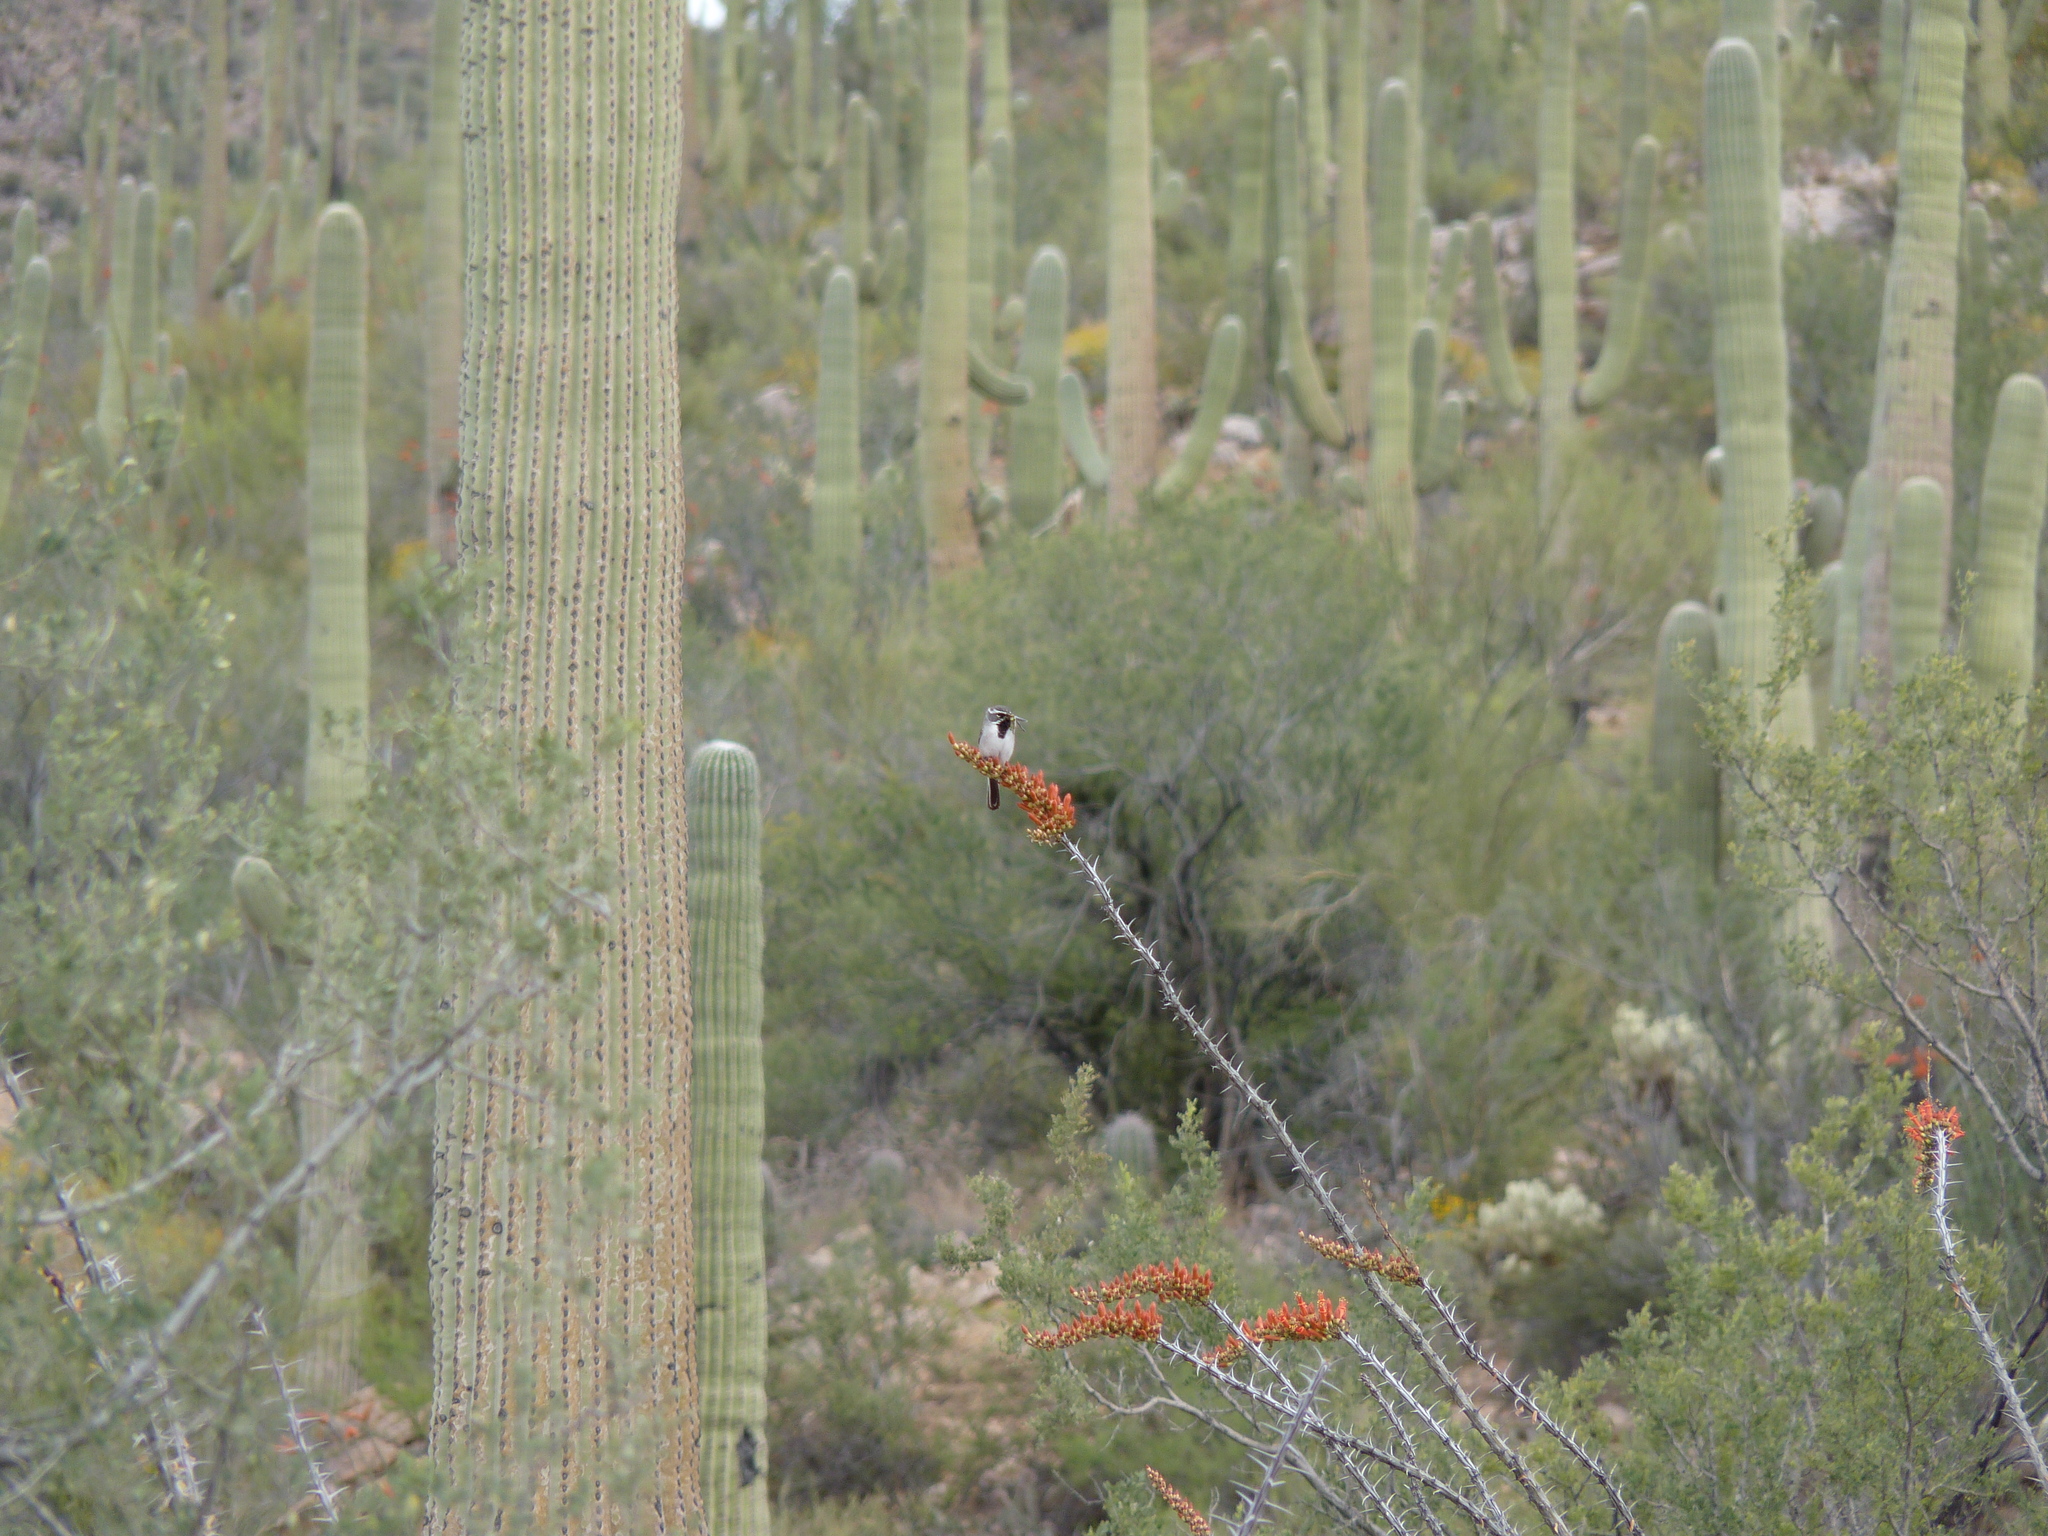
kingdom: Animalia
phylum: Chordata
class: Aves
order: Passeriformes
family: Passerellidae
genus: Amphispiza
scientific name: Amphispiza bilineata
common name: Black-throated sparrow
